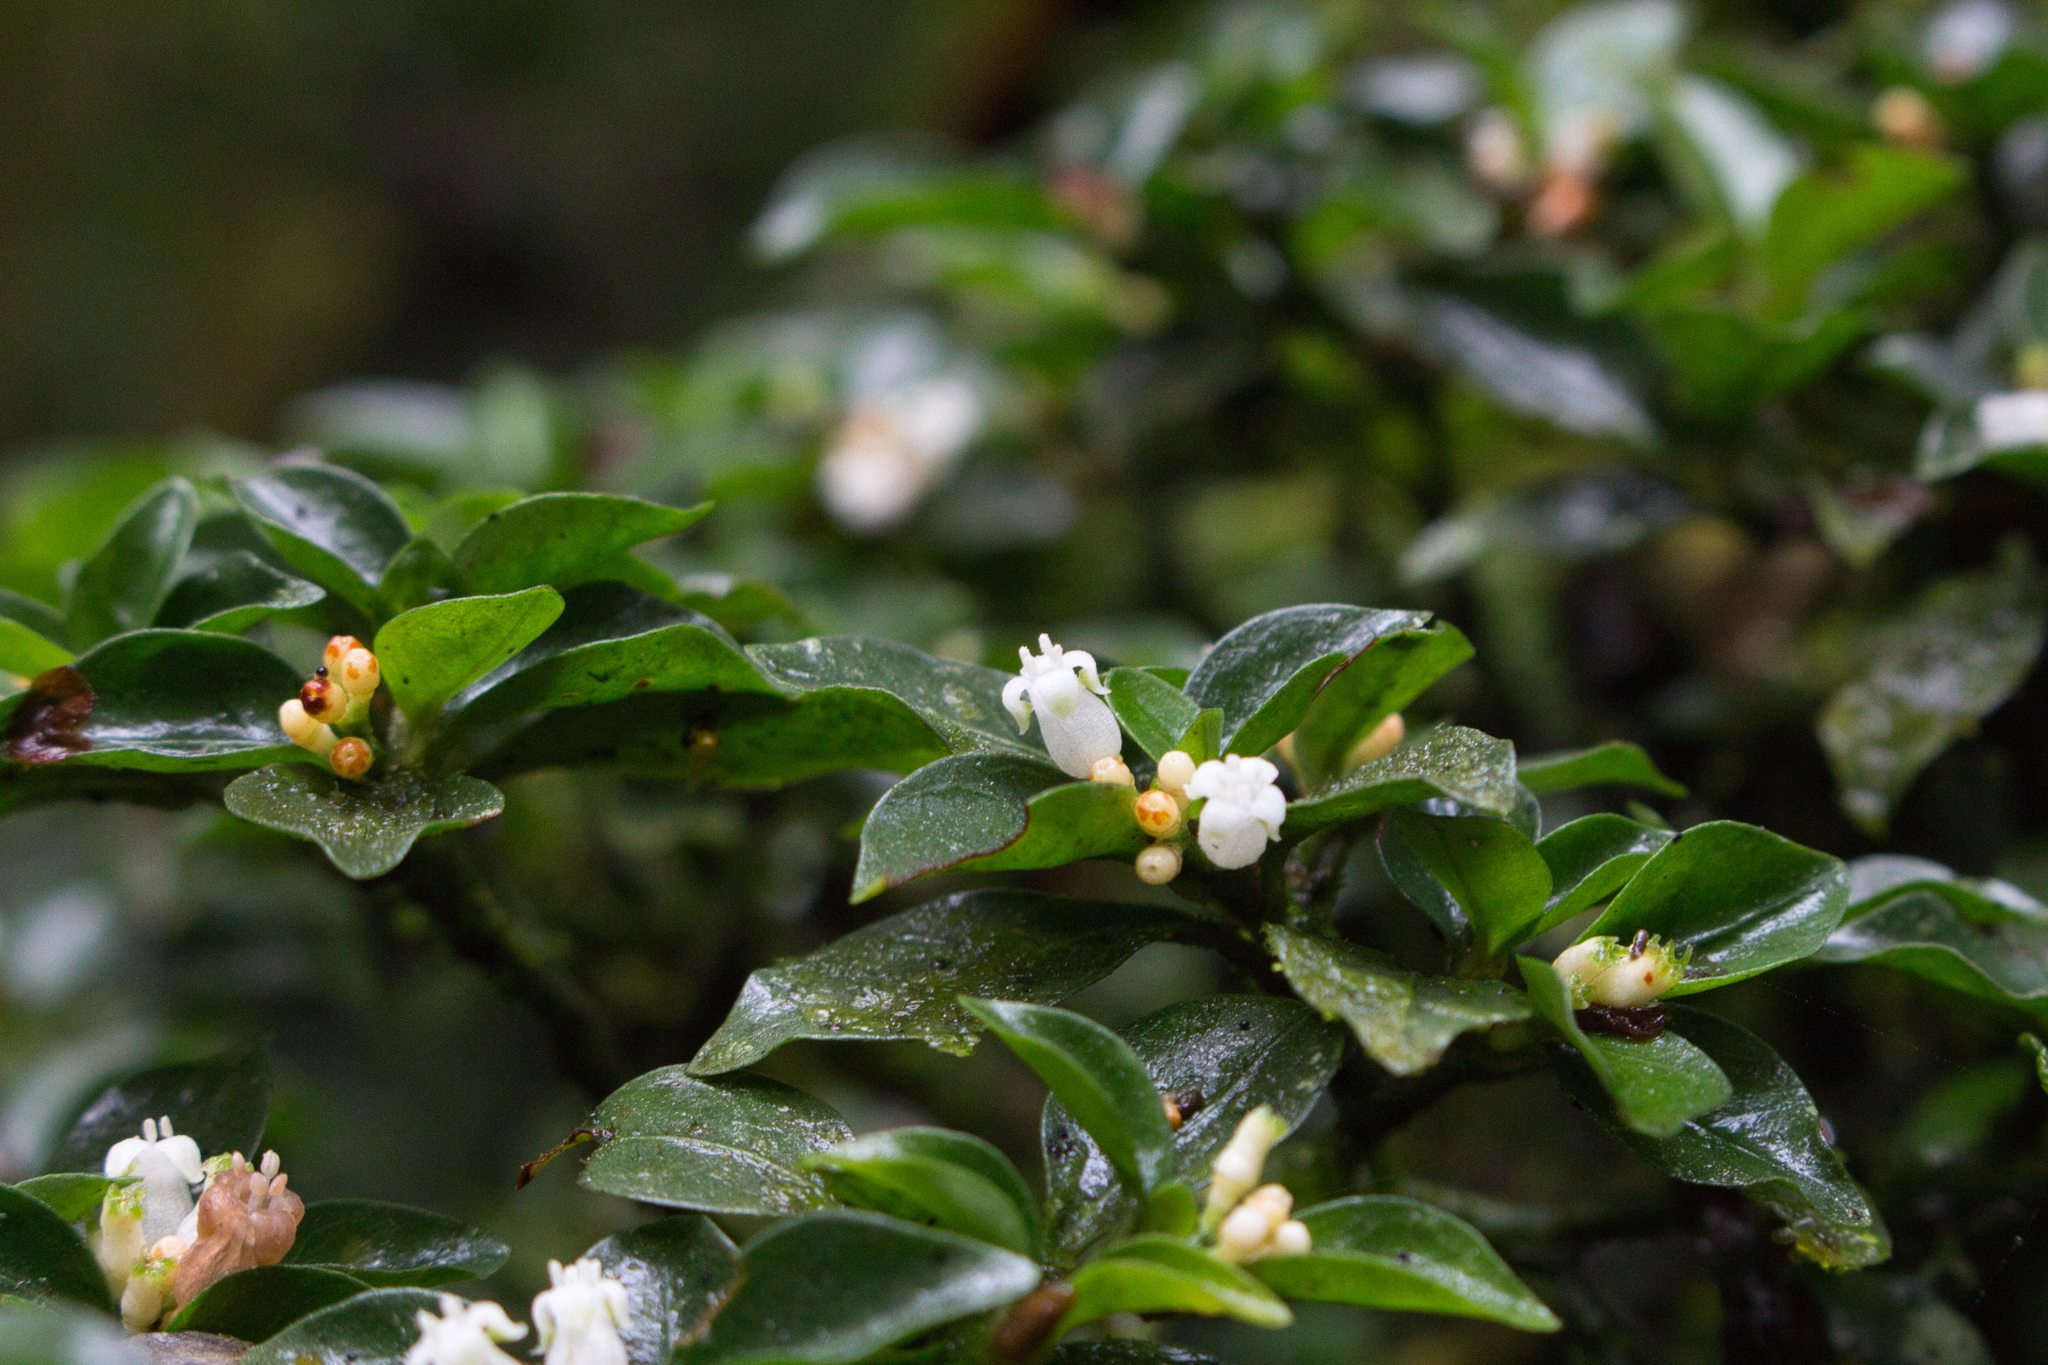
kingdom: Plantae
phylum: Tracheophyta
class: Magnoliopsida
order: Gentianales
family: Rubiaceae
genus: Psychotria
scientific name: Psychotria parvifolia
